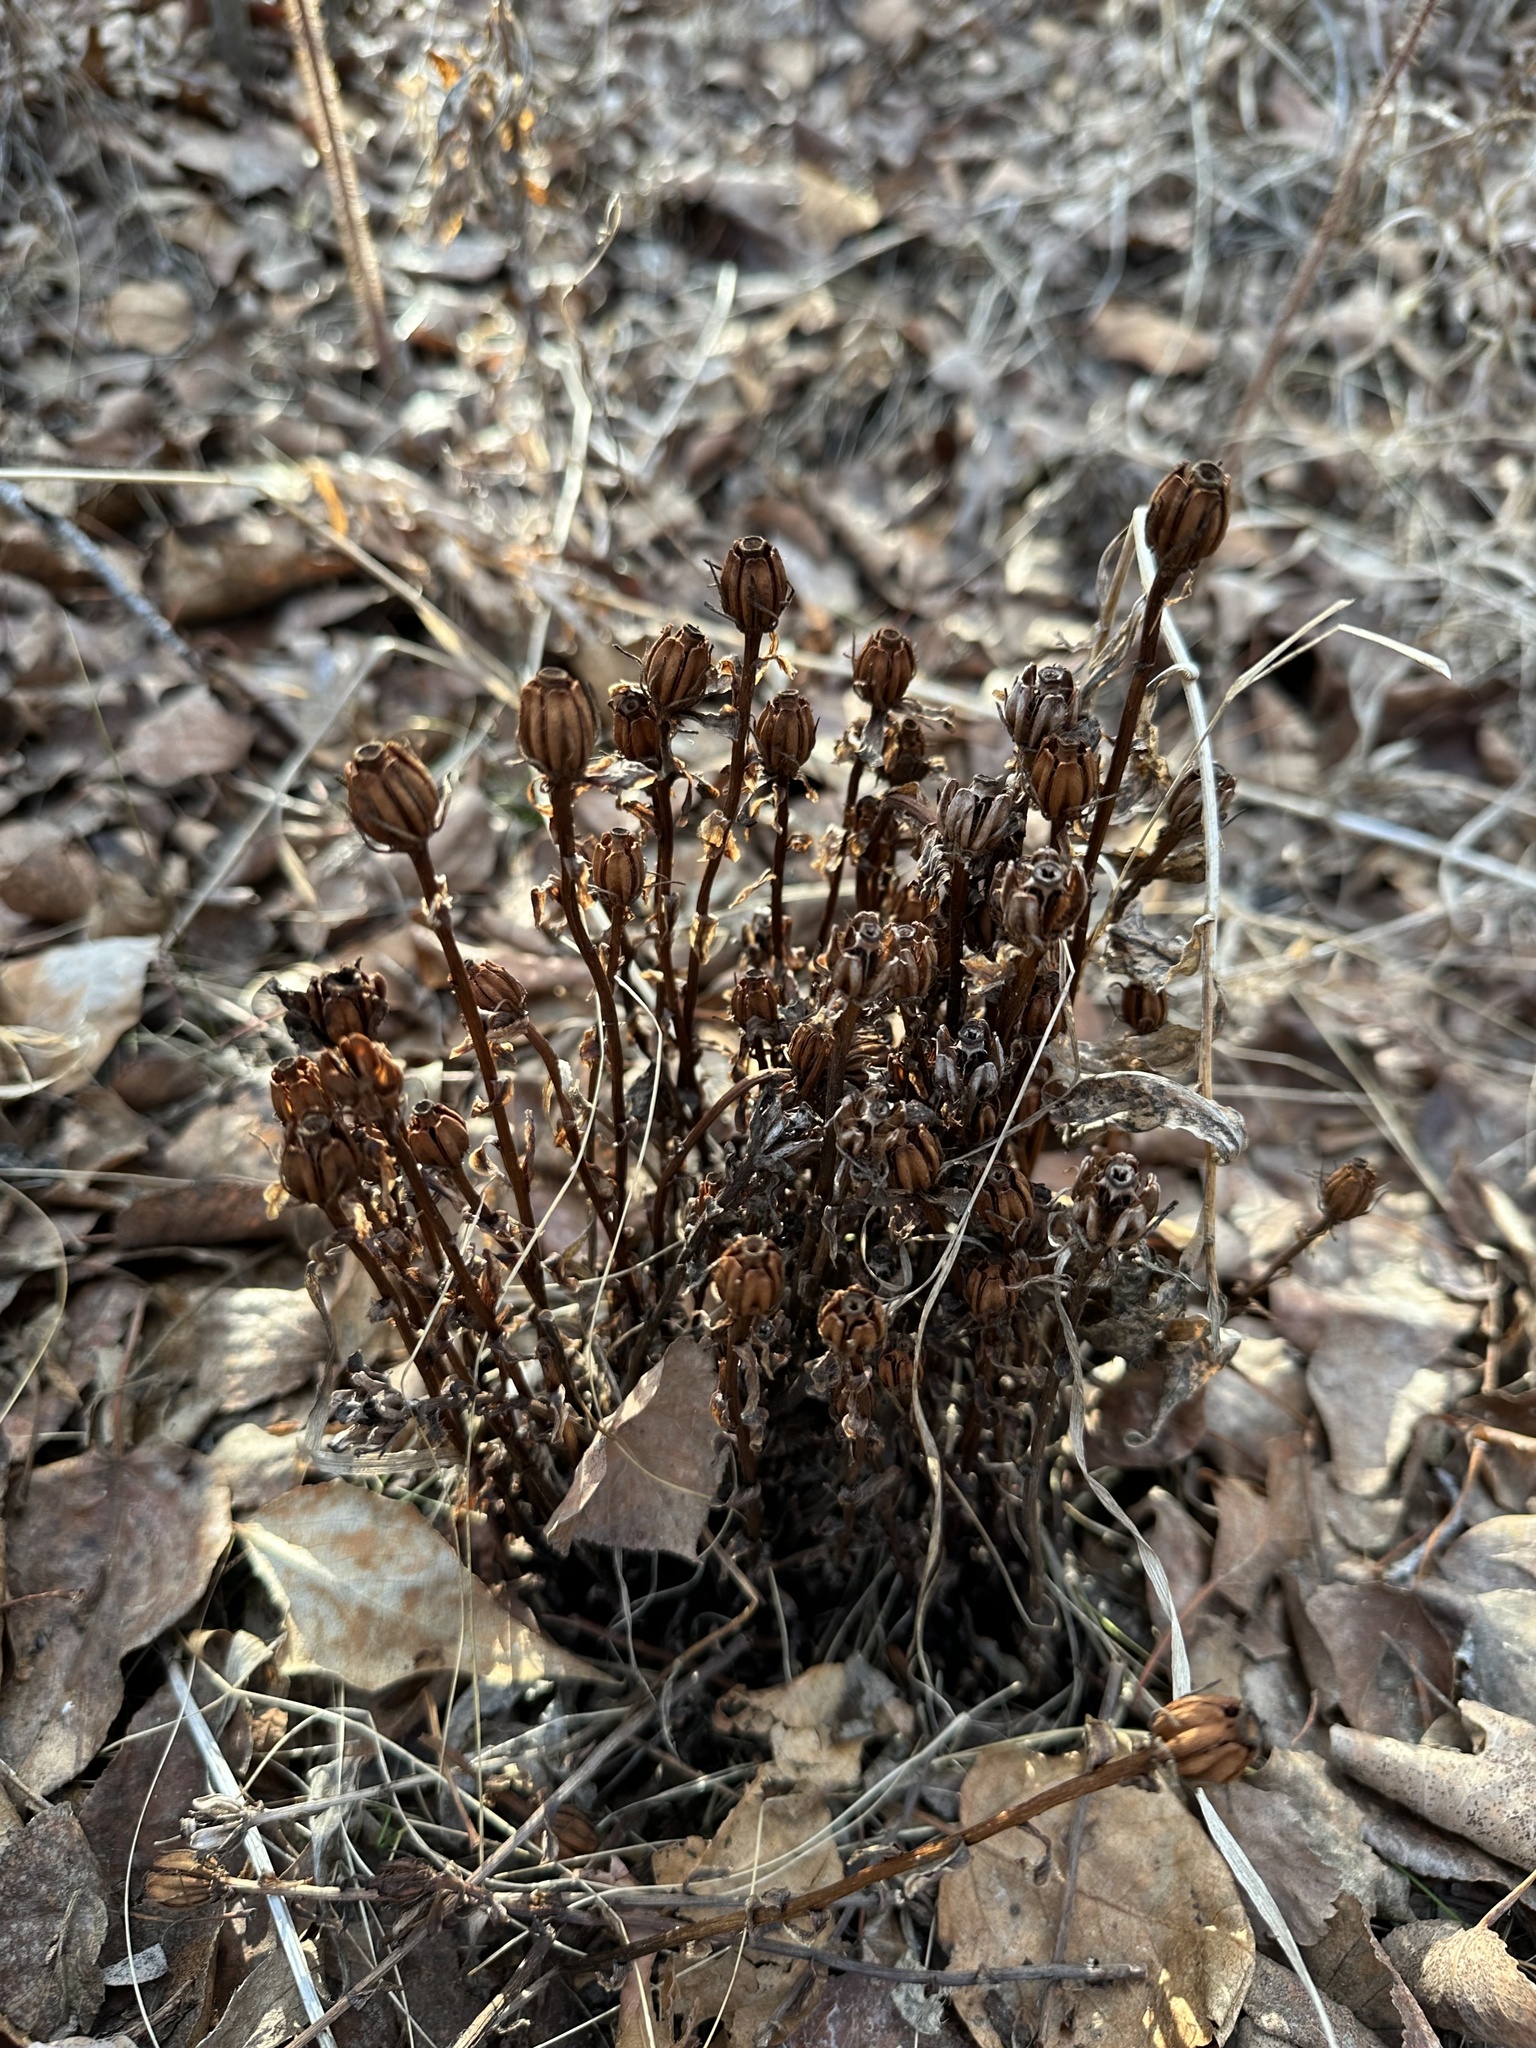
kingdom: Plantae
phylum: Tracheophyta
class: Magnoliopsida
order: Ericales
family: Ericaceae
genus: Monotropa
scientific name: Monotropa uniflora
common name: Convulsion root
